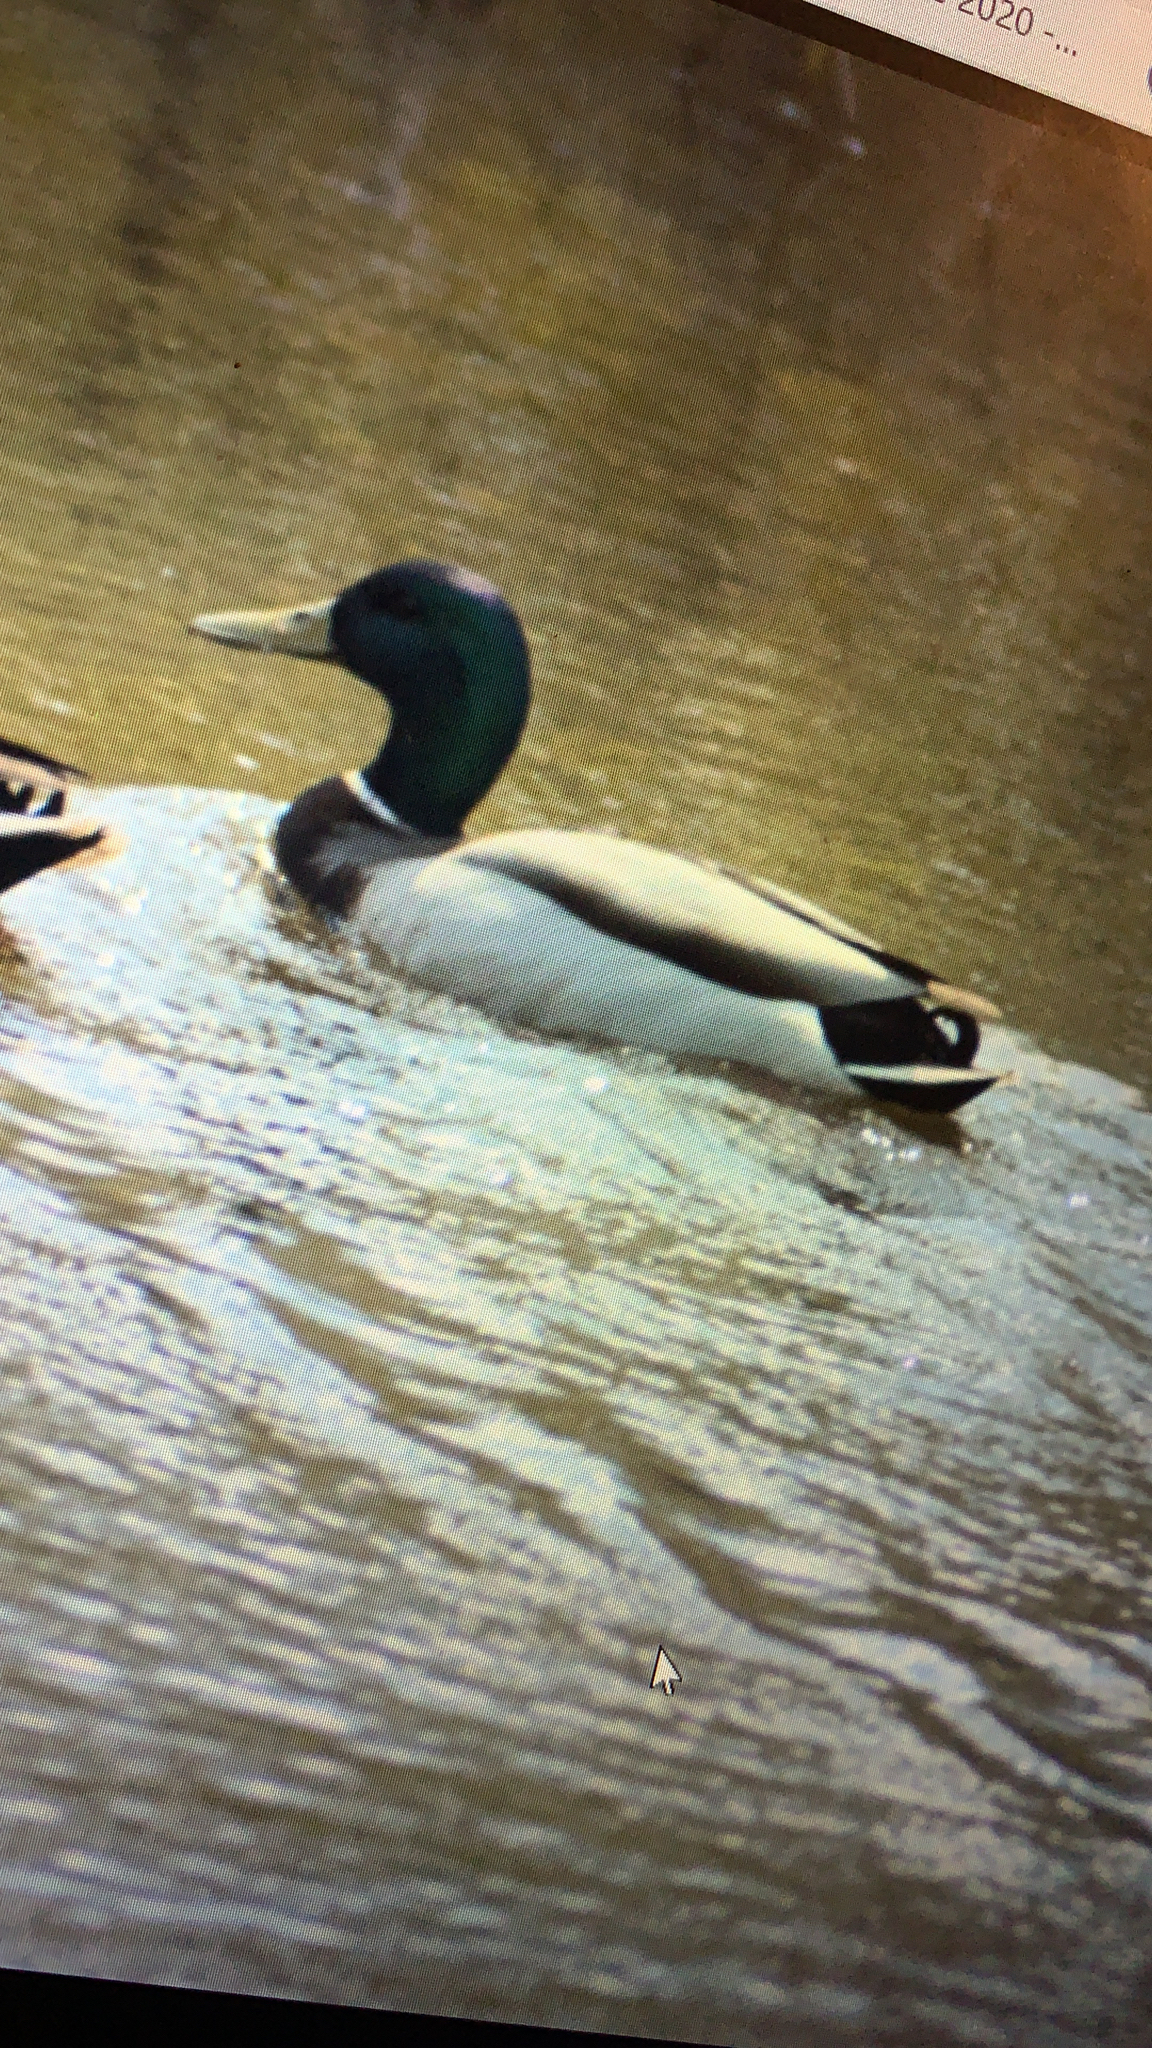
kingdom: Animalia
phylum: Chordata
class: Aves
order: Anseriformes
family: Anatidae
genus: Anas
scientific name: Anas platyrhynchos
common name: Mallard
